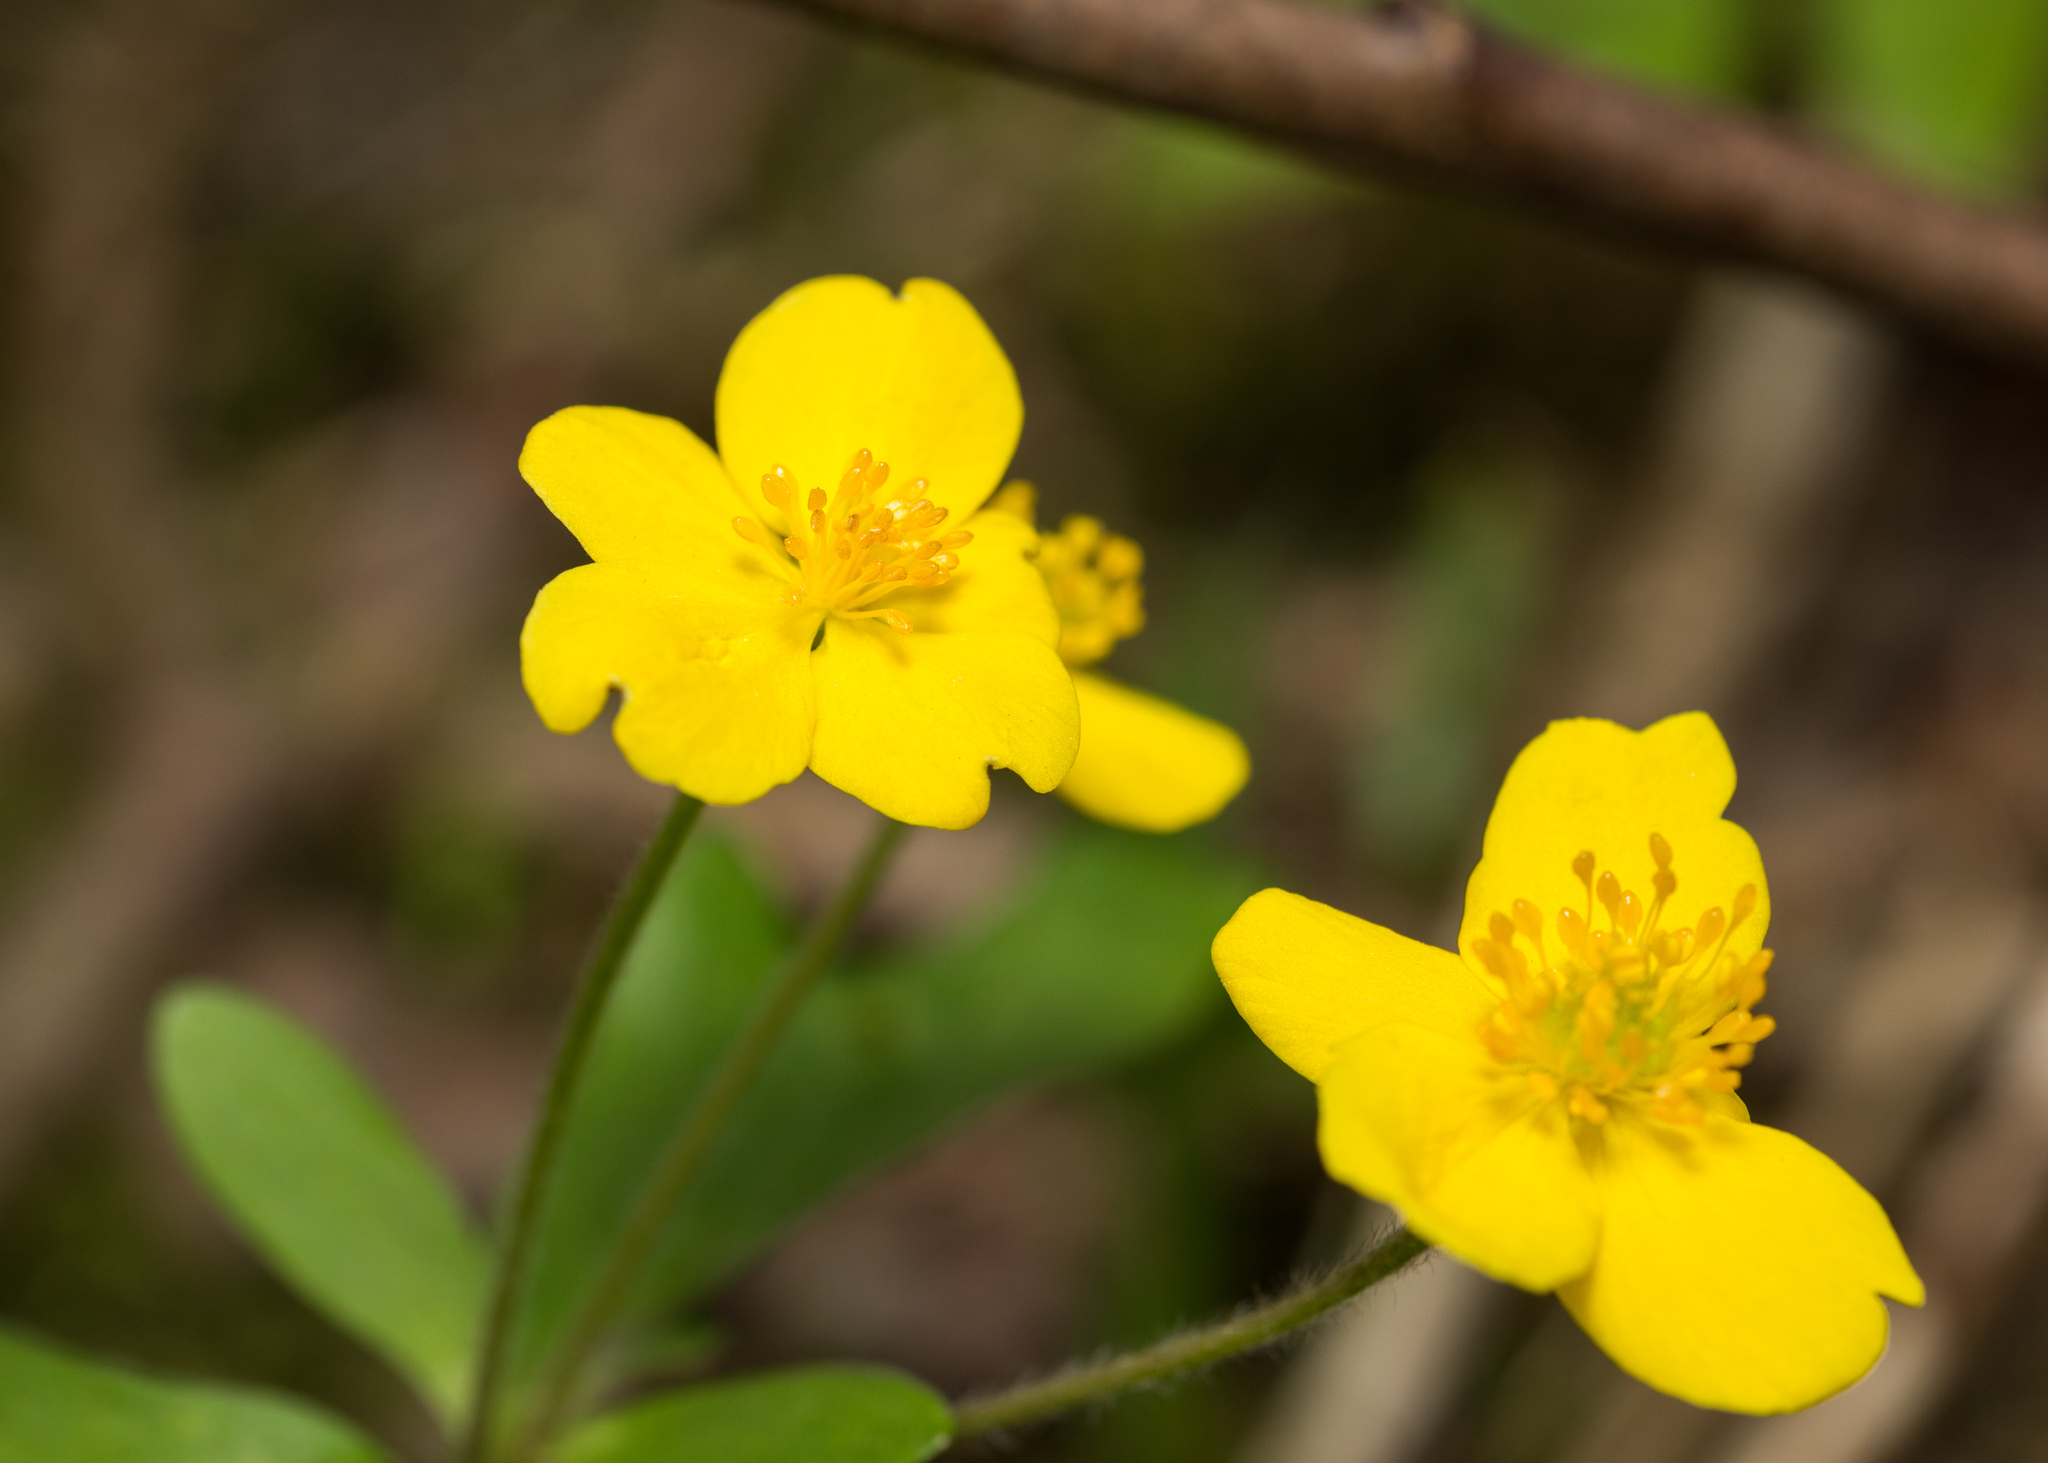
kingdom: Plantae
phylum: Tracheophyta
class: Magnoliopsida
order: Ranunculales
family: Ranunculaceae
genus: Anemone
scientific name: Anemone ranunculoides
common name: Yellow anemone
